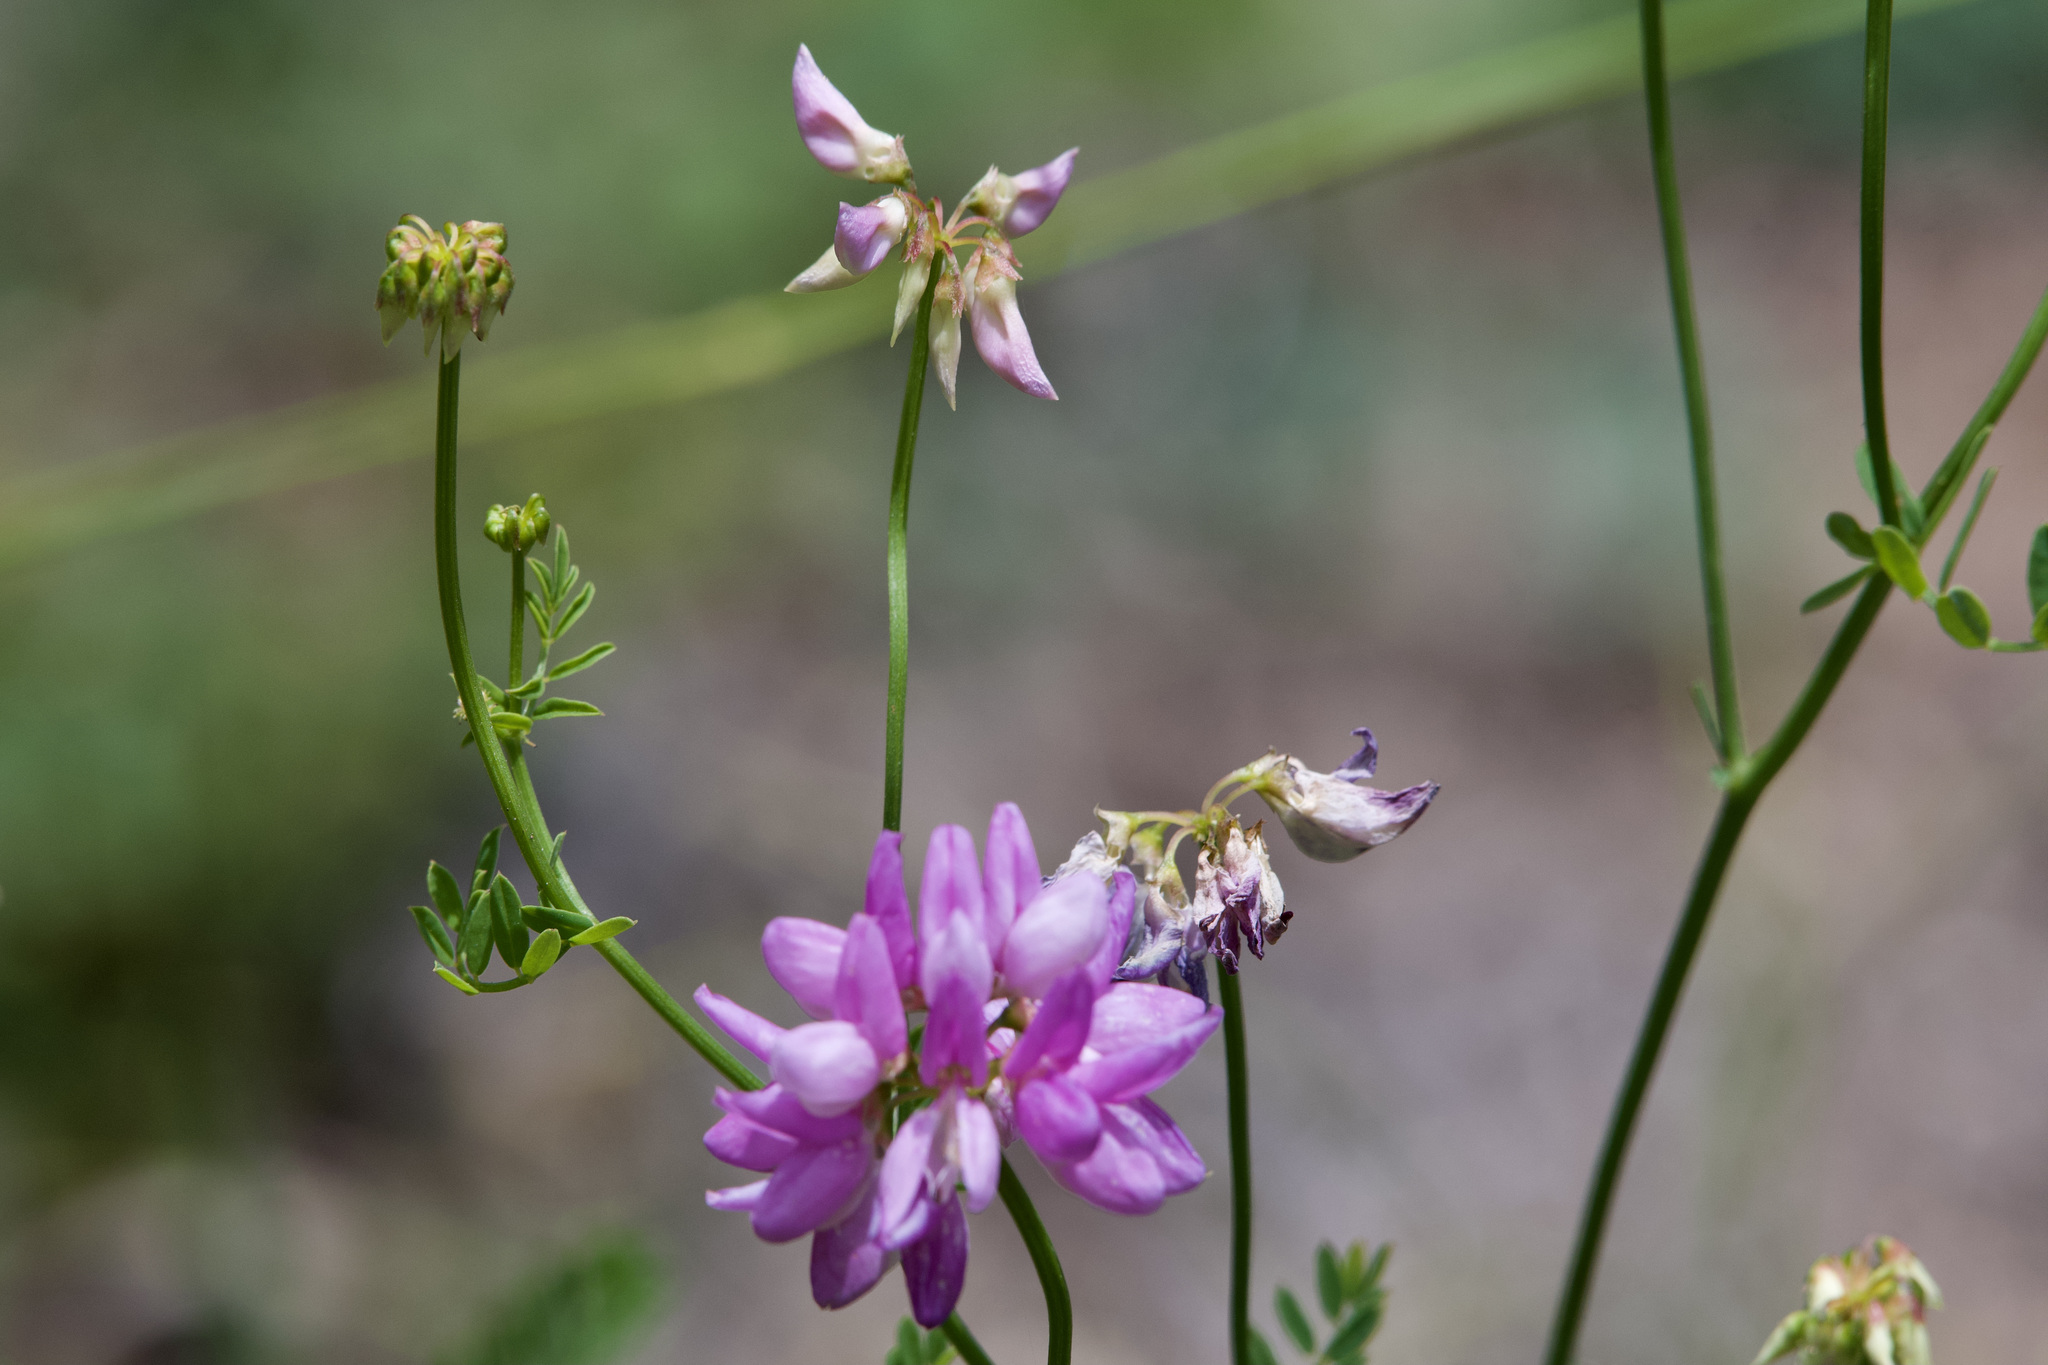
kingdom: Plantae
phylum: Tracheophyta
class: Magnoliopsida
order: Fabales
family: Fabaceae
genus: Coronilla
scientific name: Coronilla varia
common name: Crownvetch
